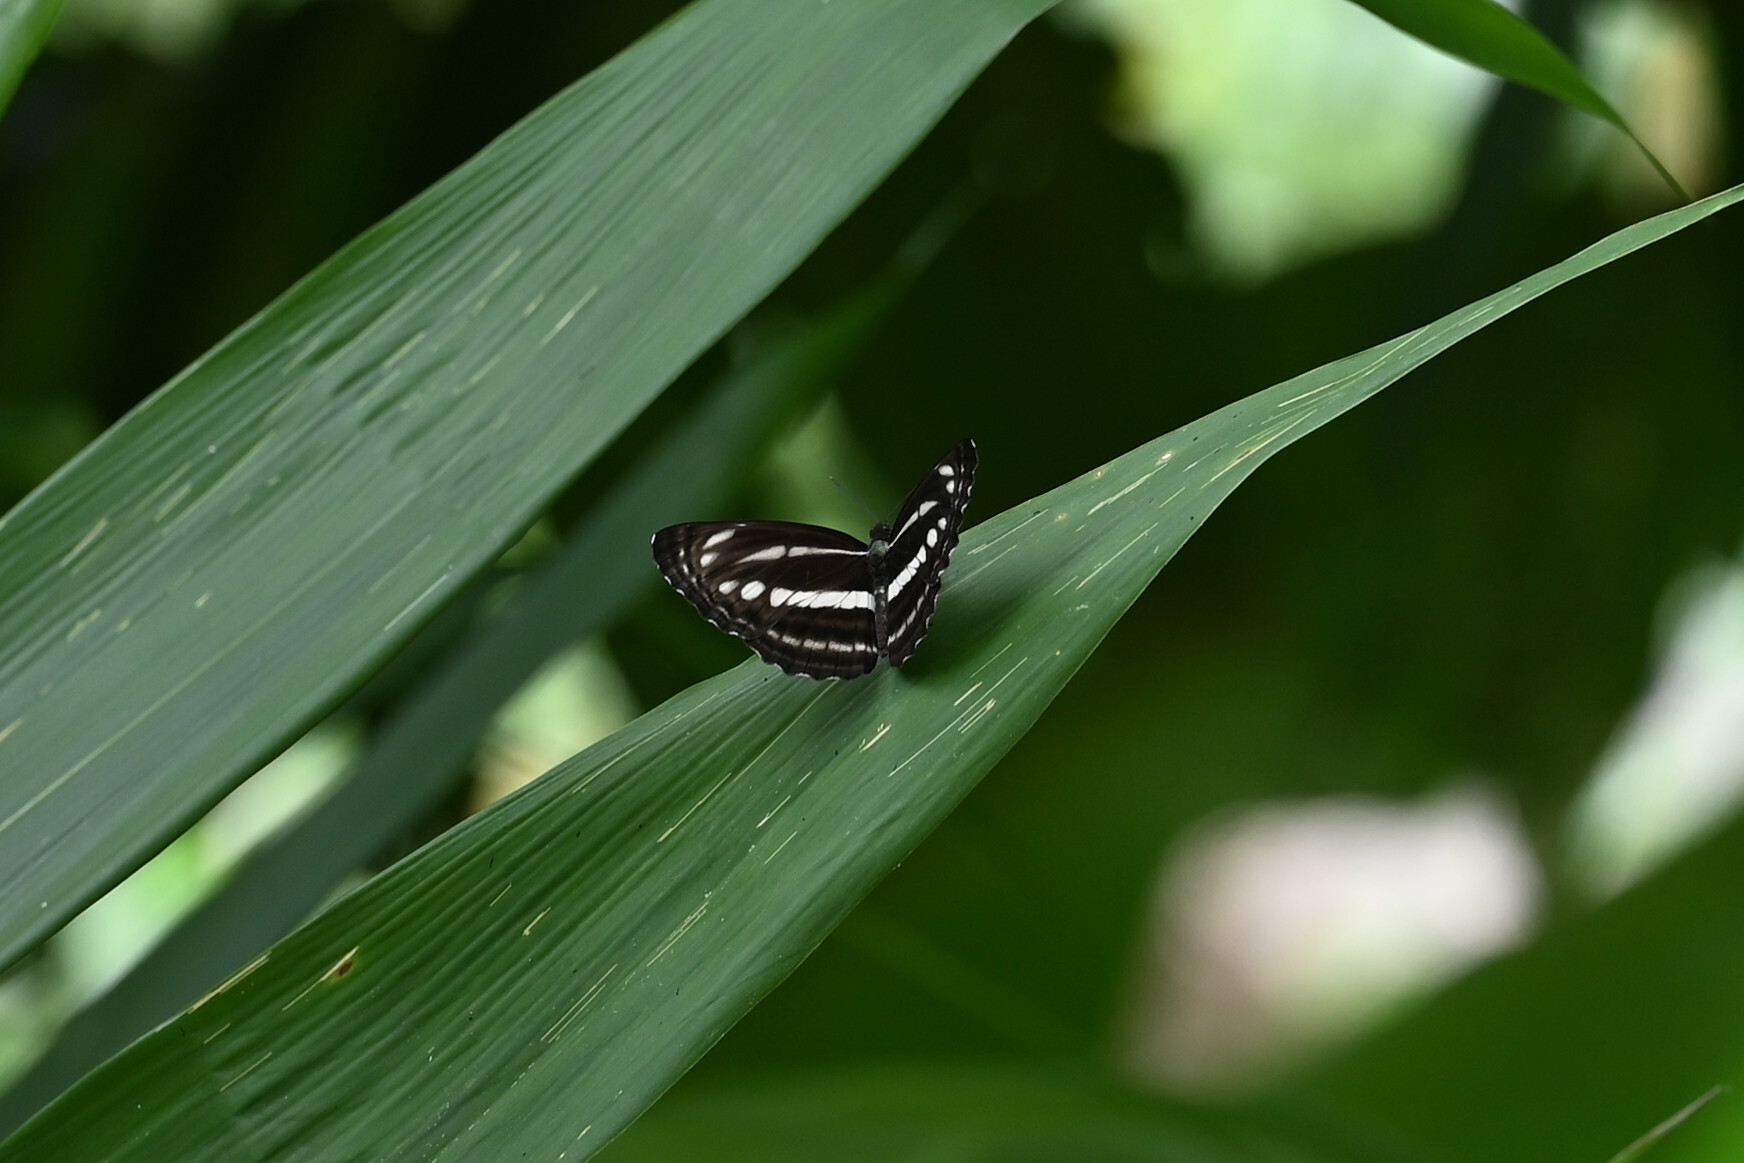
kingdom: Animalia
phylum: Arthropoda
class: Insecta
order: Lepidoptera
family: Nymphalidae
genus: Neptis
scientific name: Neptis clinia
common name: Southern sullied sailer
